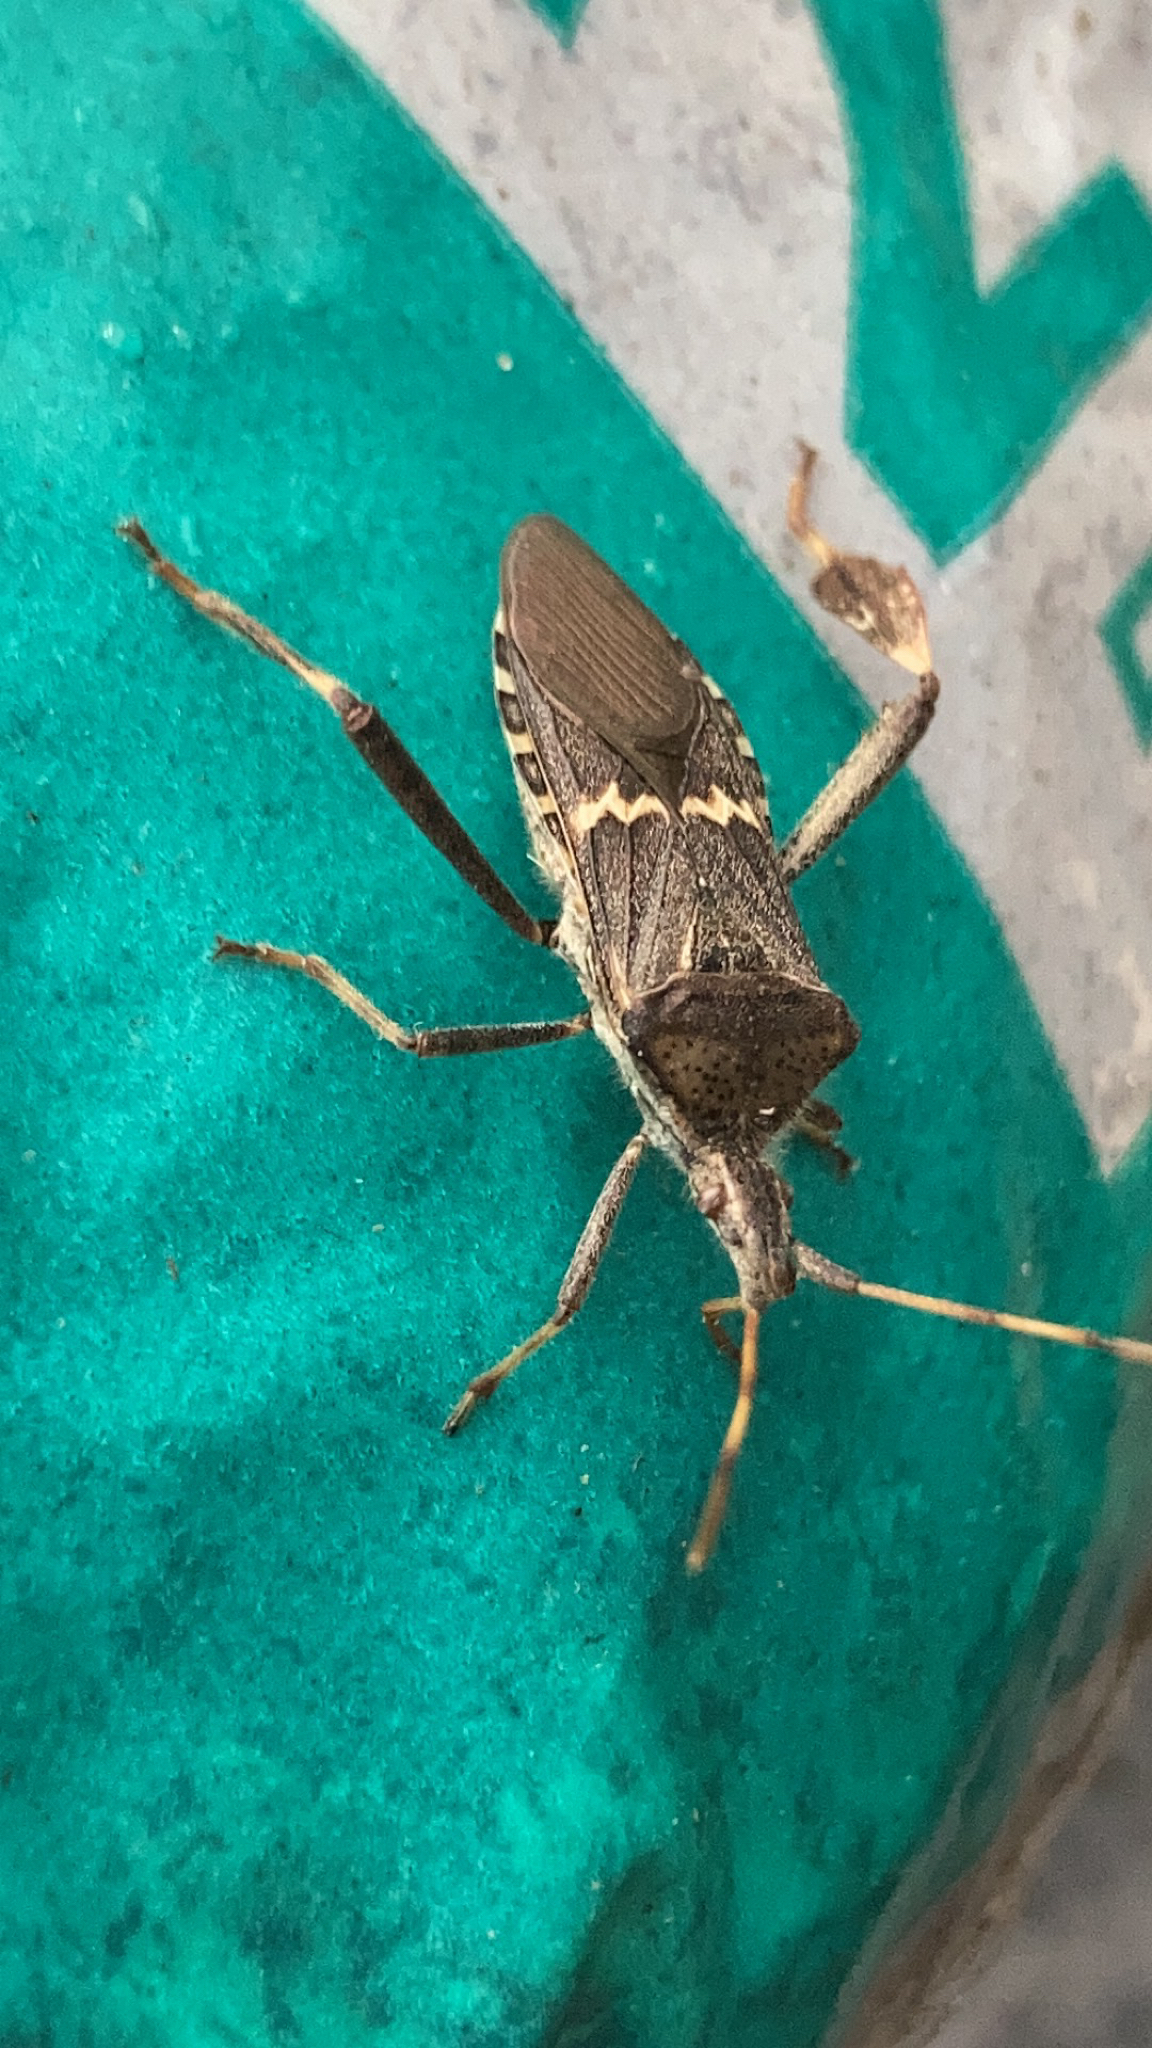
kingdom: Animalia
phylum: Arthropoda
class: Insecta
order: Hemiptera
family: Coreidae
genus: Leptoglossus
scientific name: Leptoglossus clypealis
